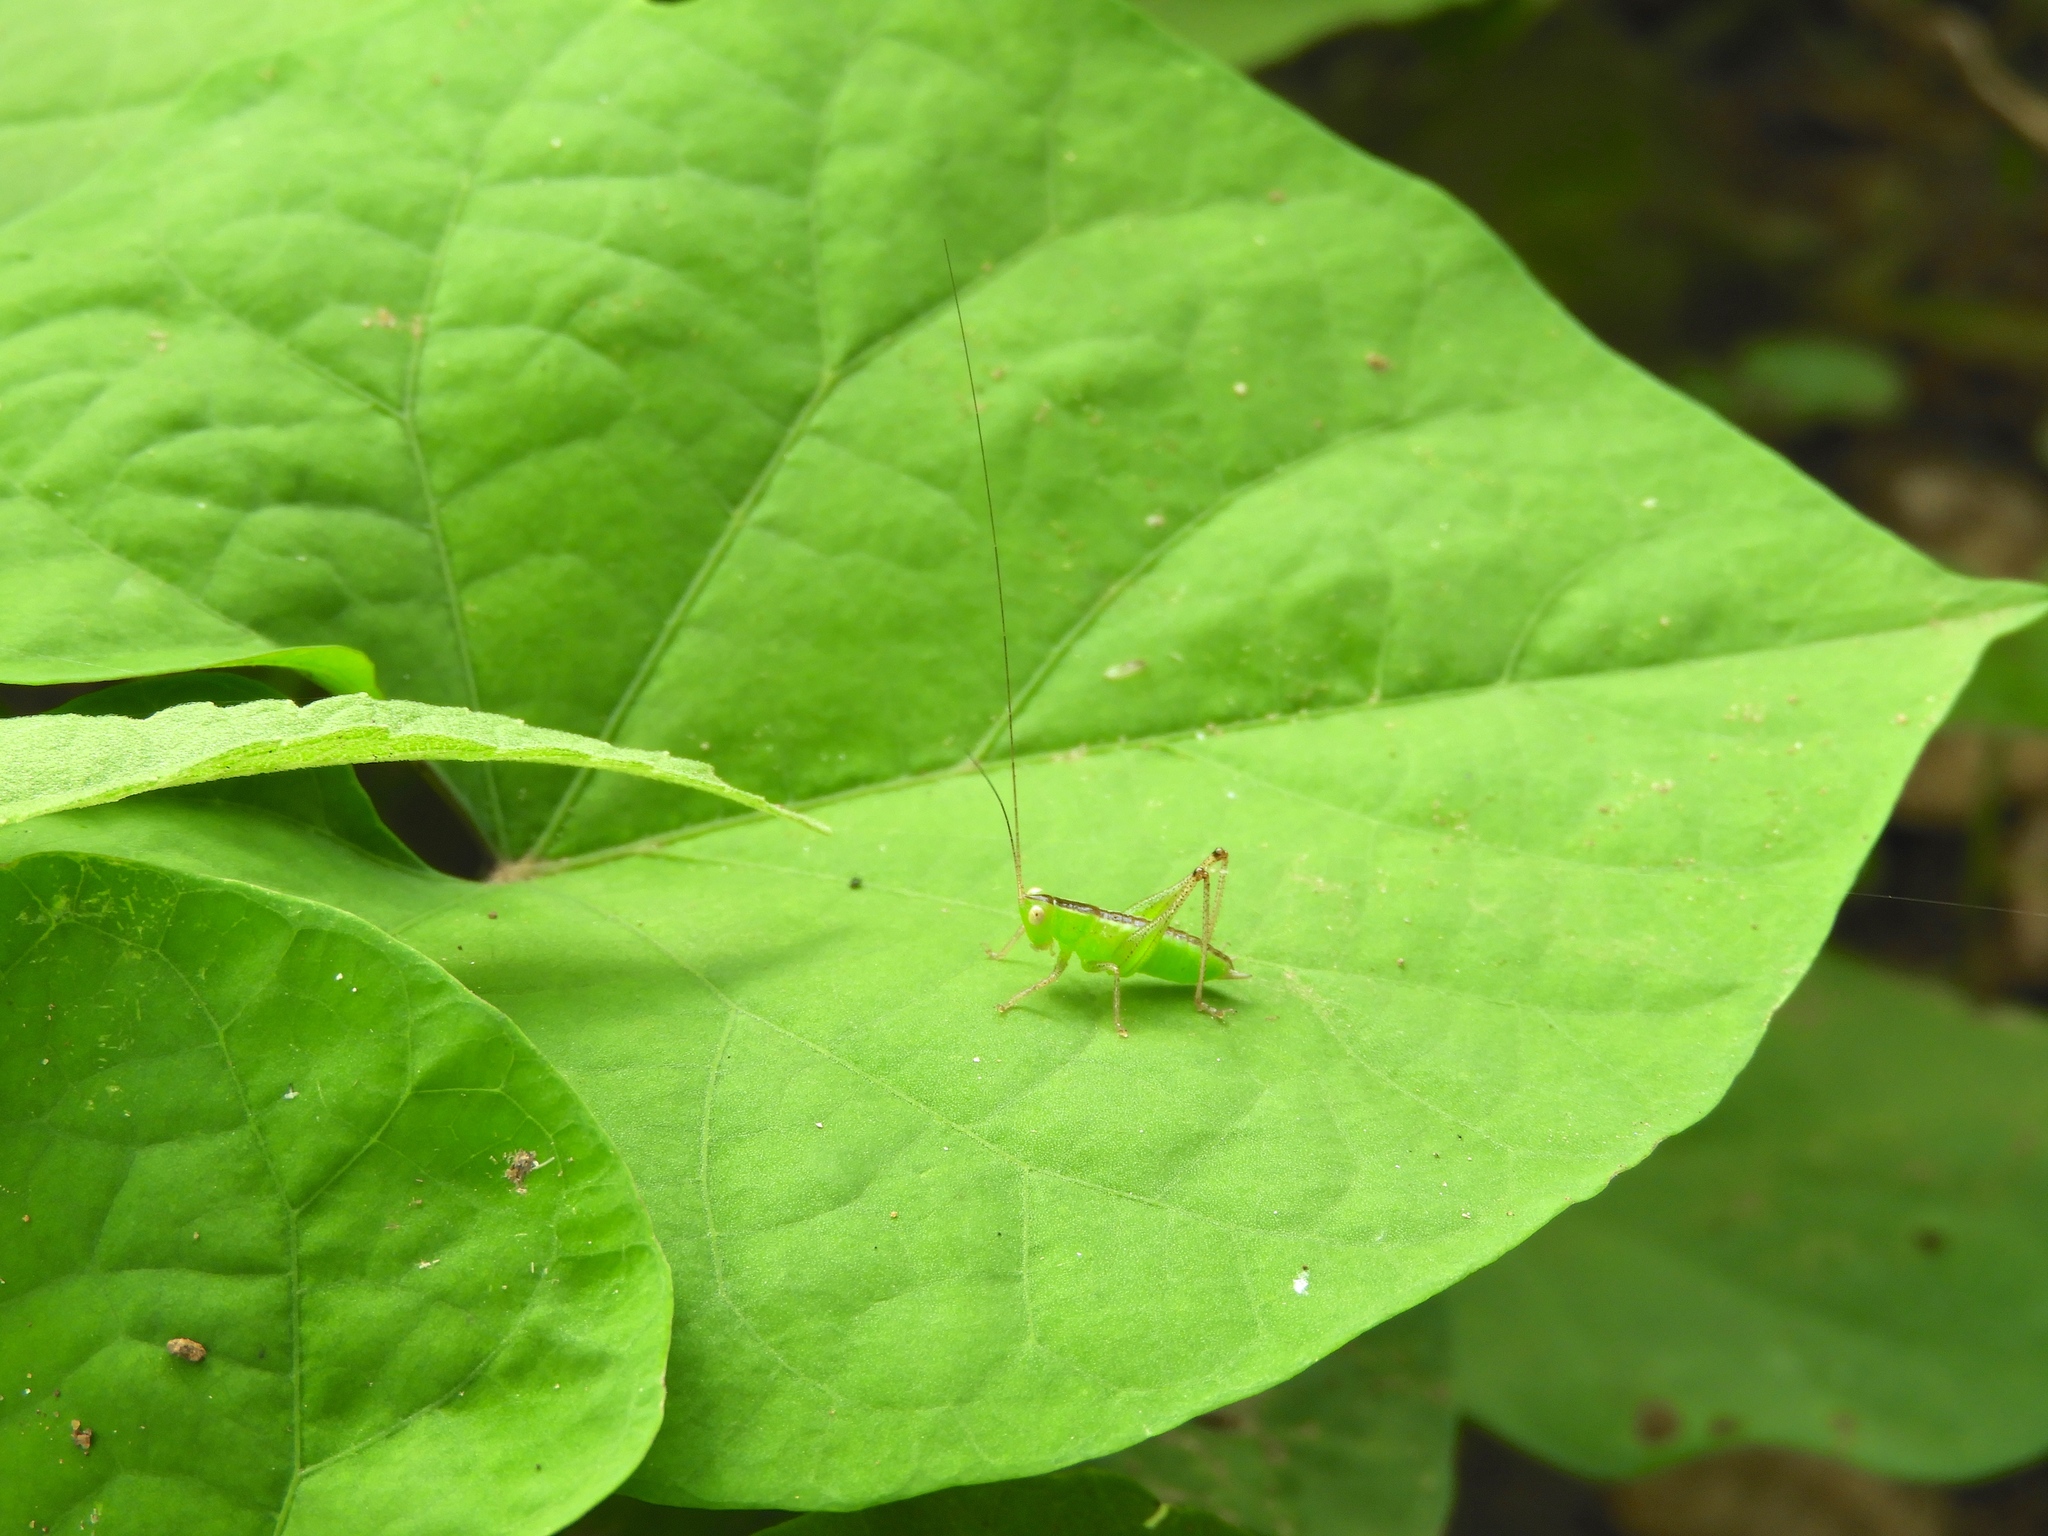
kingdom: Animalia
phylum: Arthropoda
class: Insecta
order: Orthoptera
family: Tettigoniidae
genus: Neobarrettia
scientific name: Neobarrettia sinaloae
